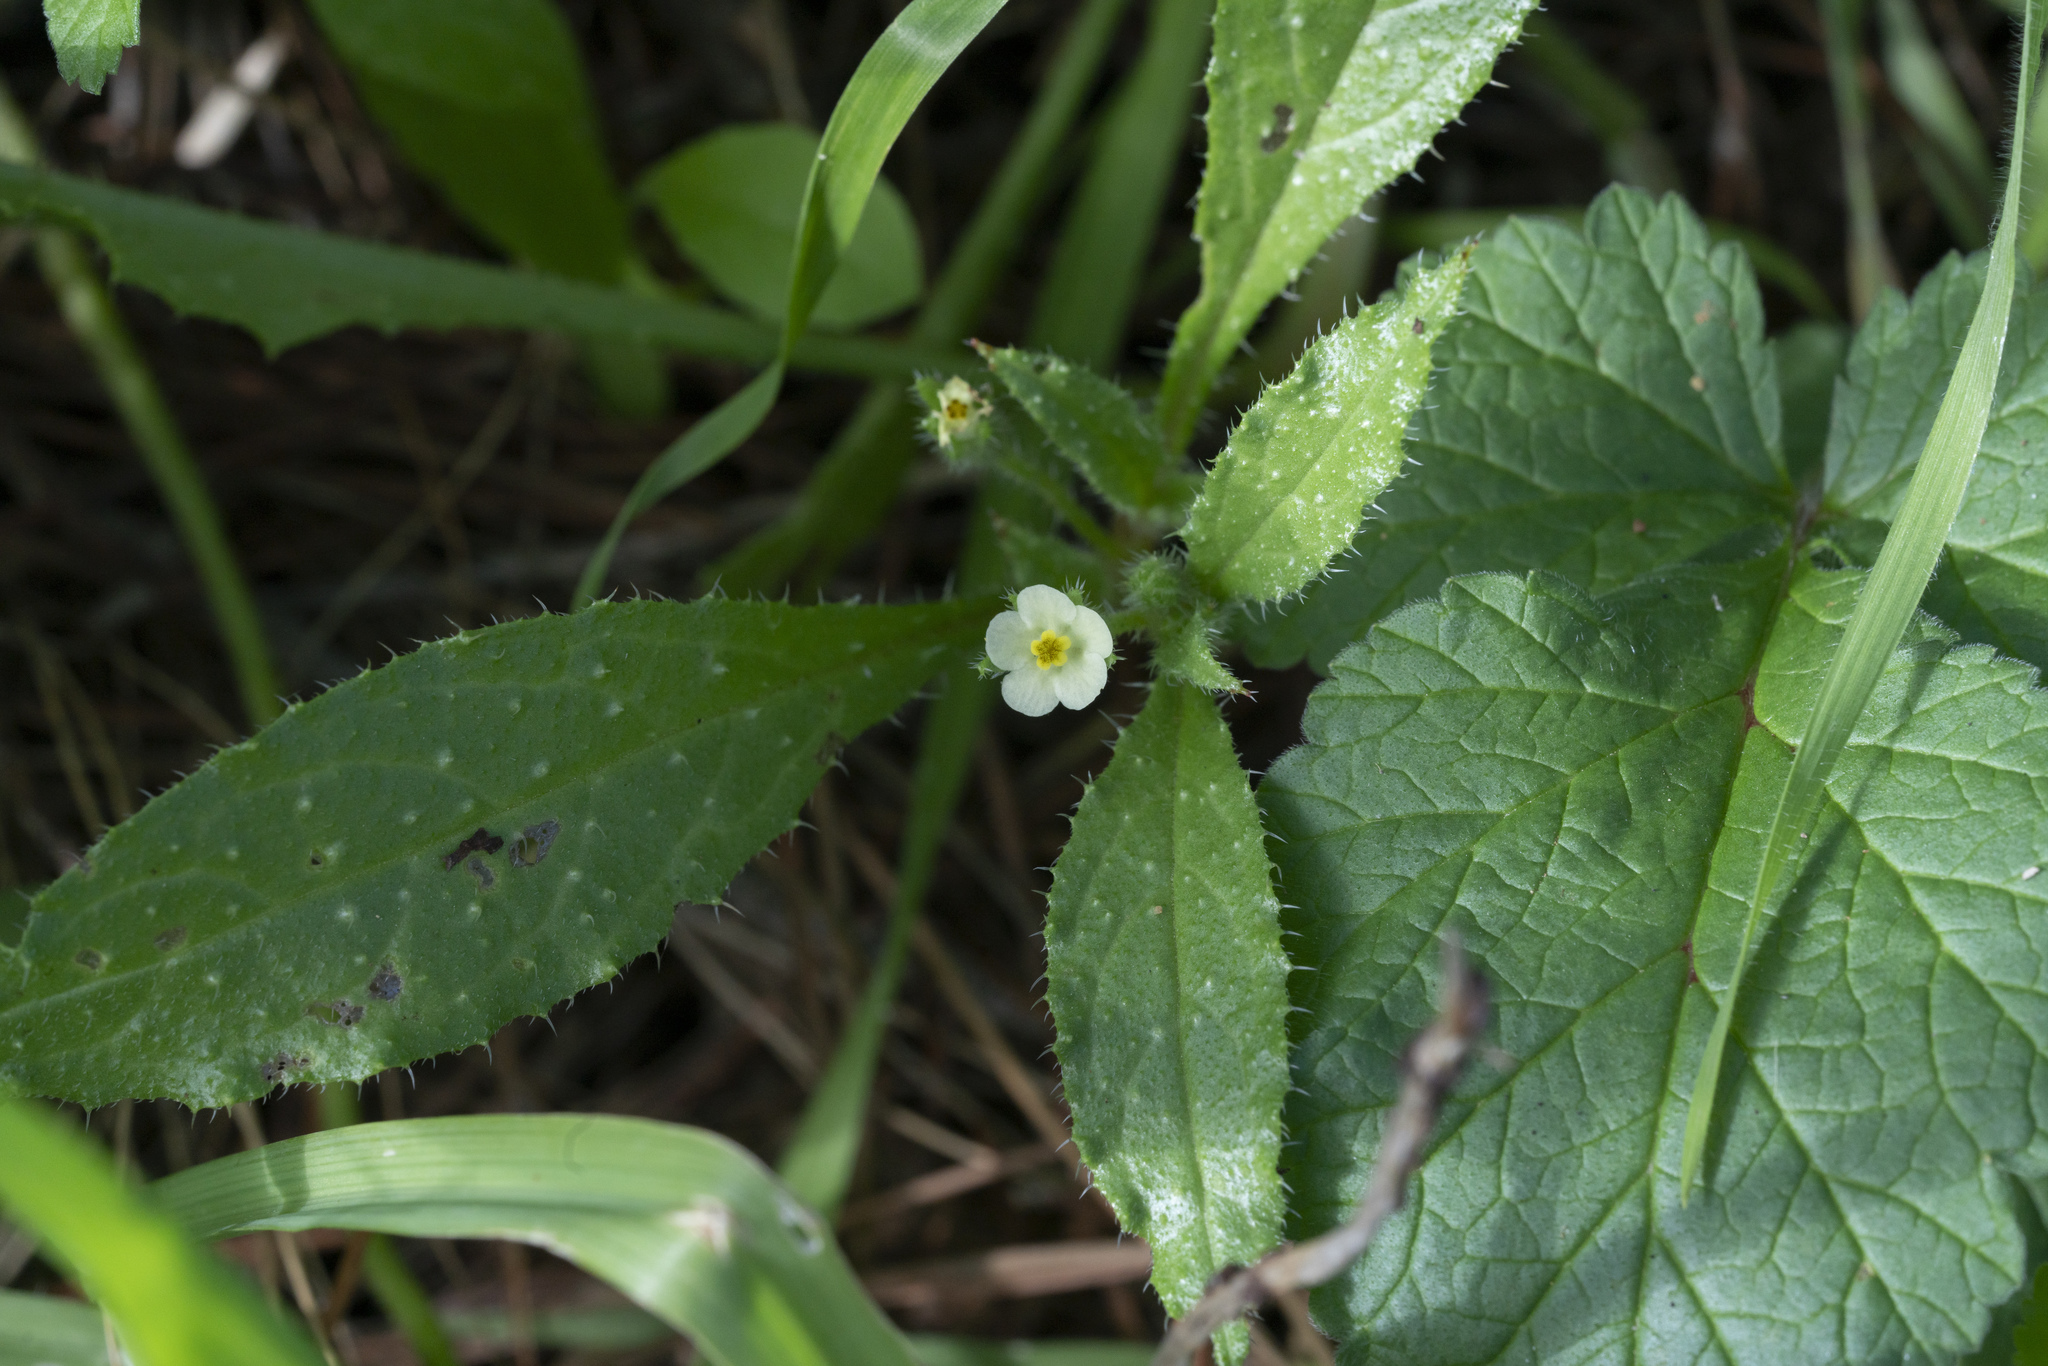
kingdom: Plantae
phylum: Tracheophyta
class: Magnoliopsida
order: Boraginales
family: Boraginaceae
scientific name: Boraginaceae
